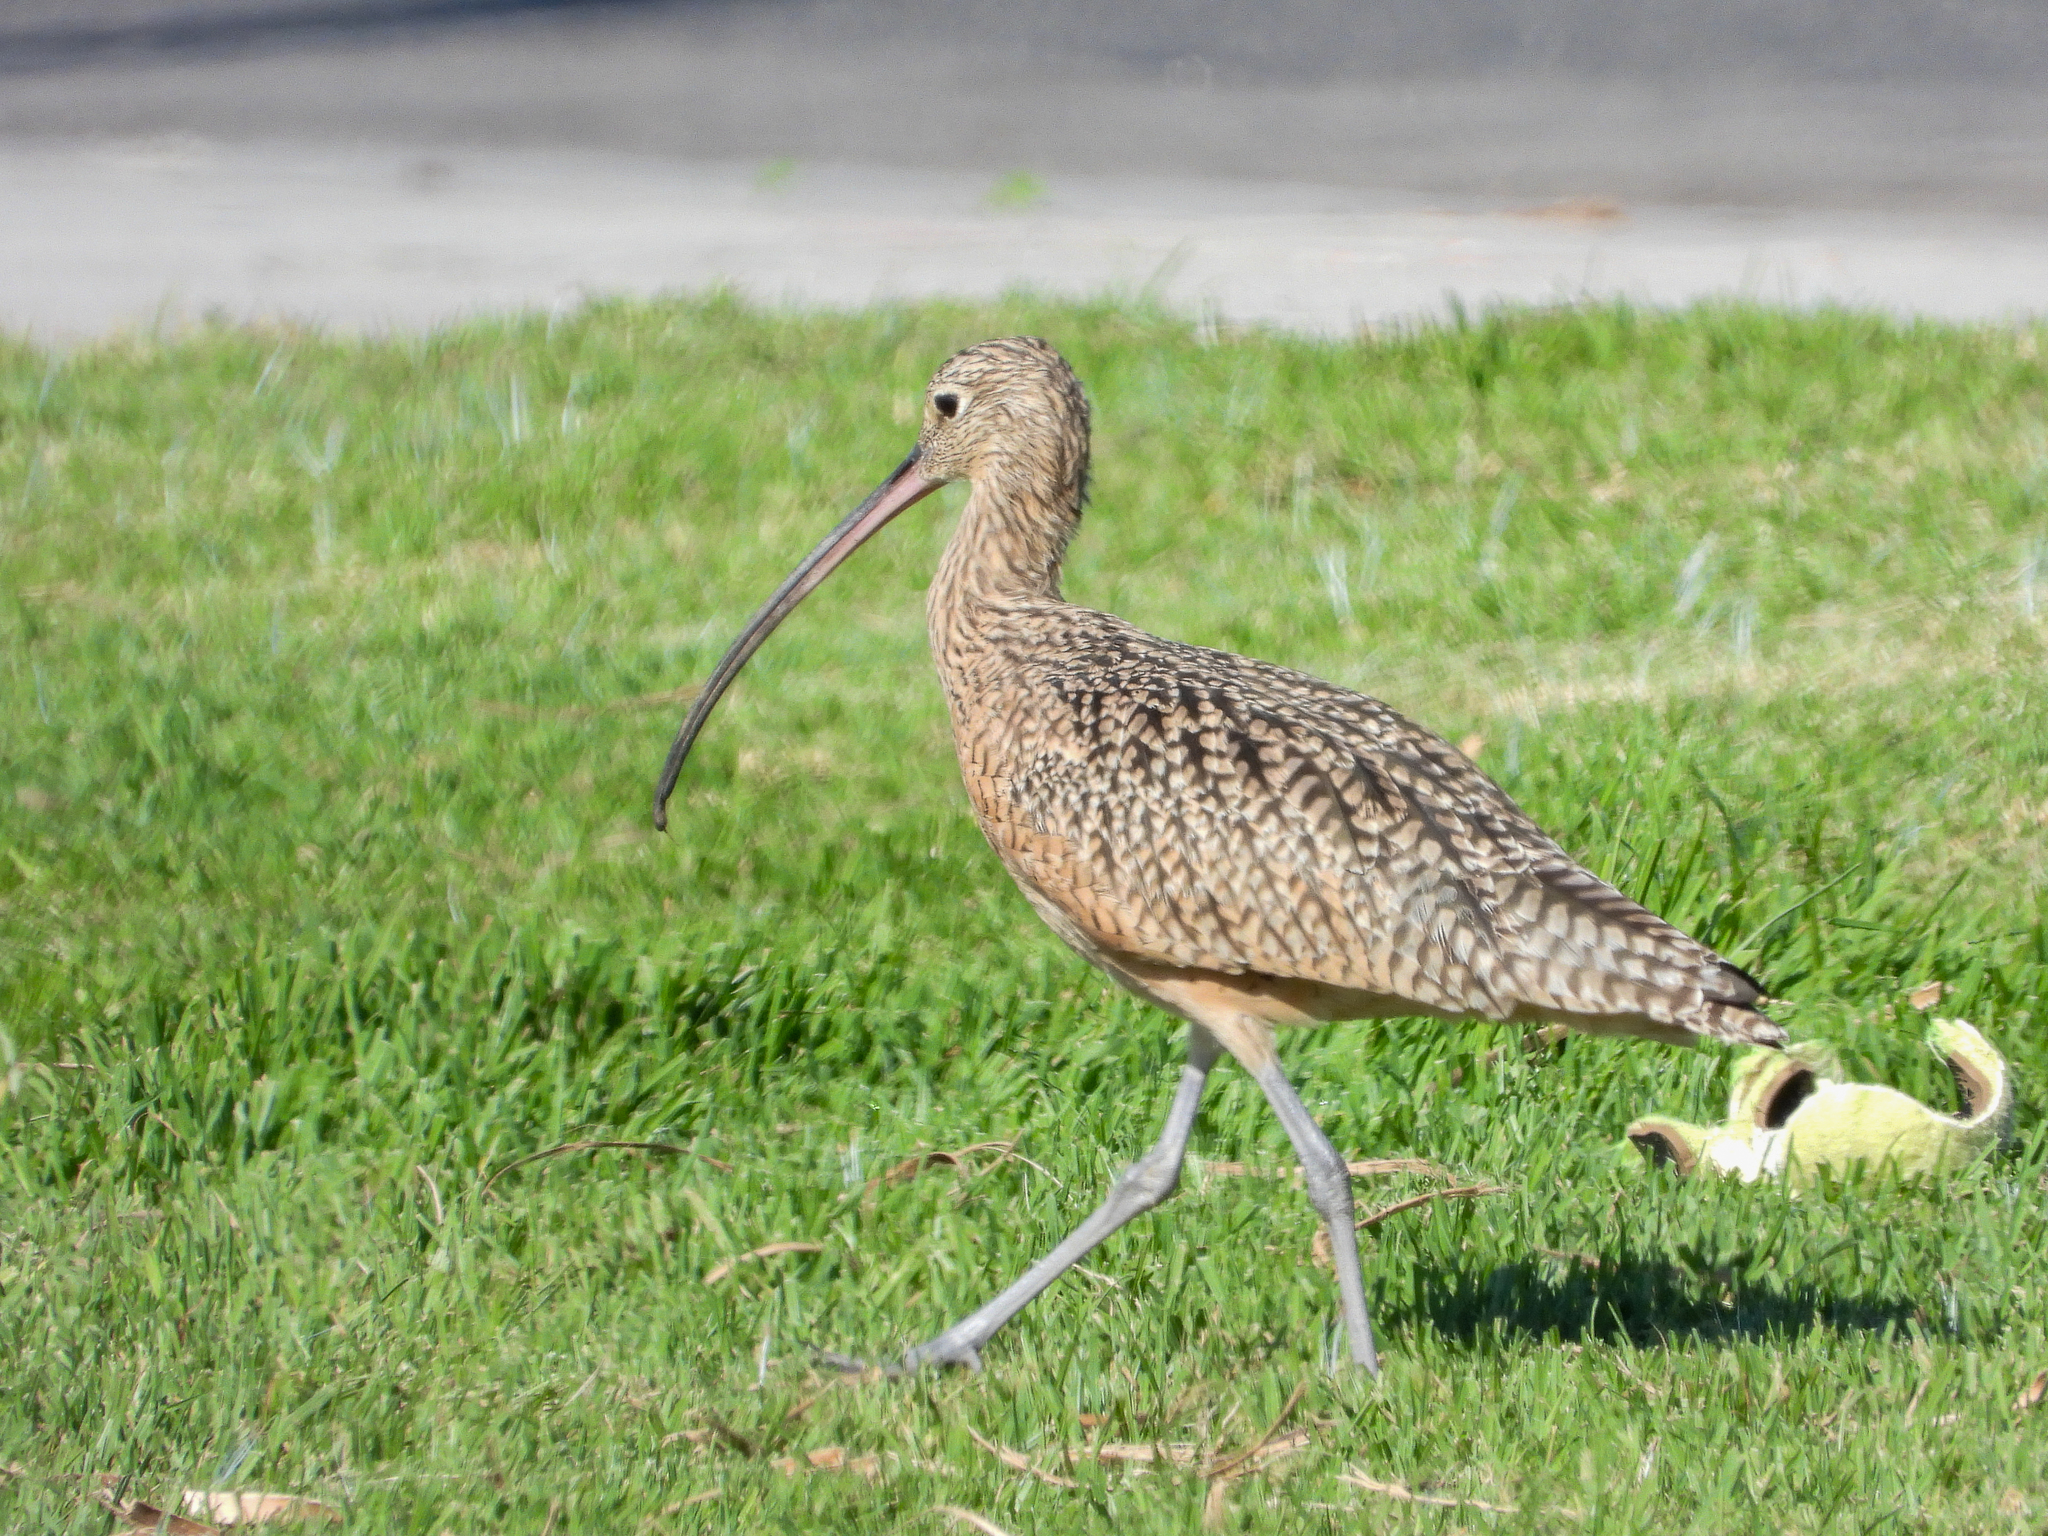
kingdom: Animalia
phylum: Chordata
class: Aves
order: Charadriiformes
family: Scolopacidae
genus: Numenius
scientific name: Numenius americanus
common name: Long-billed curlew
